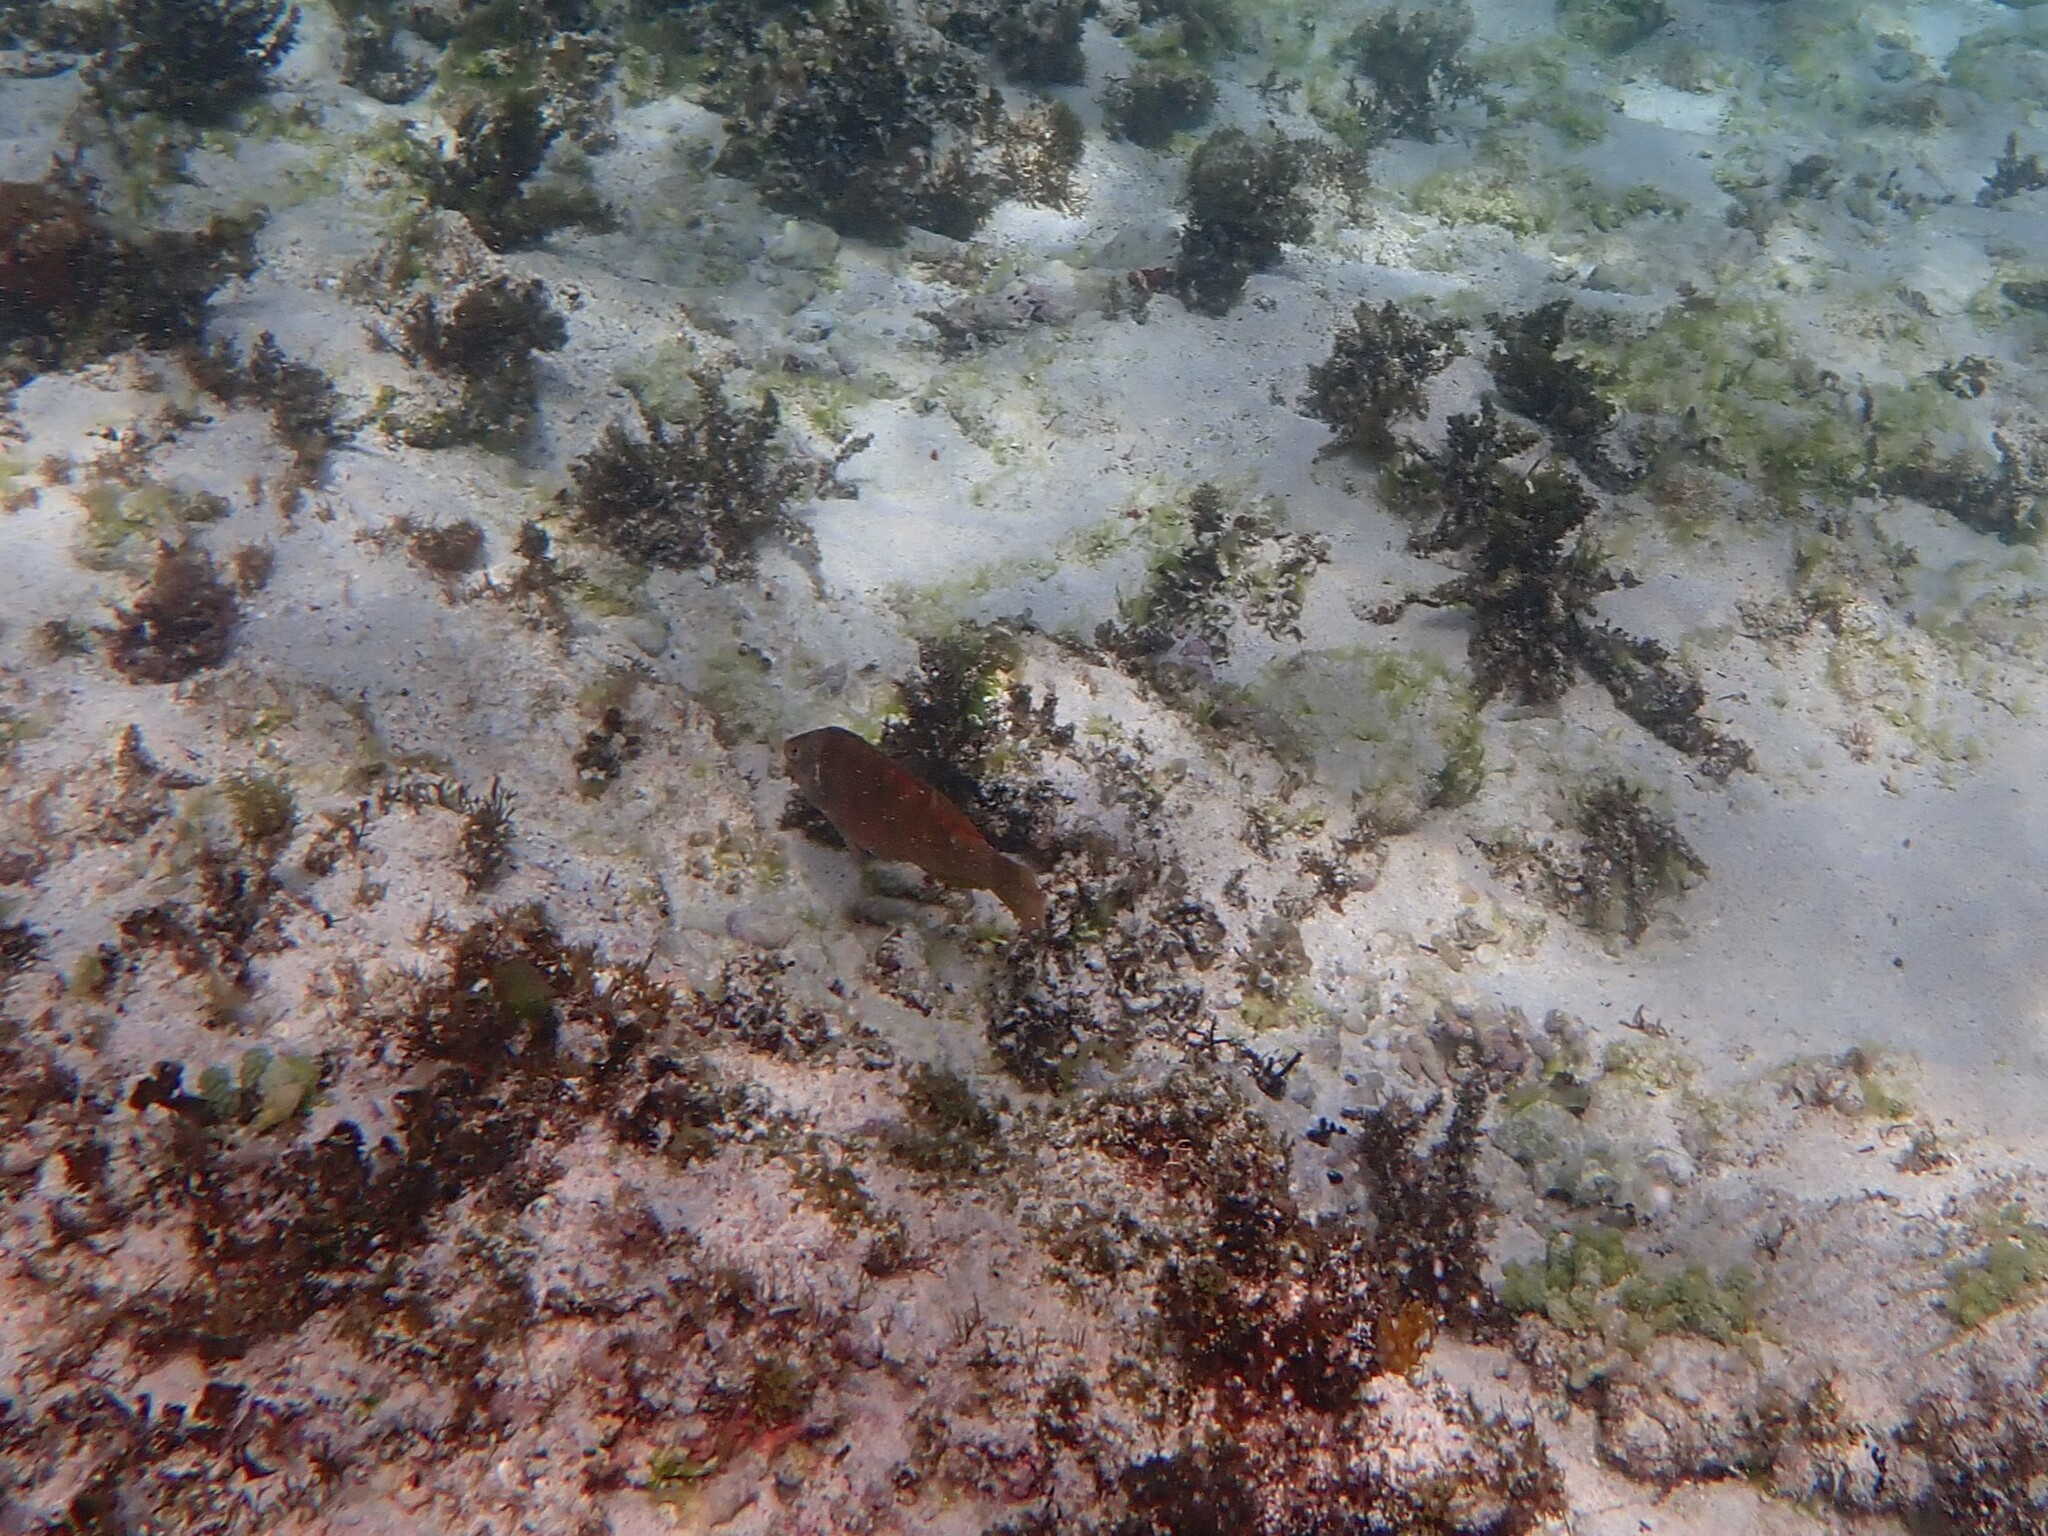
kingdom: Animalia
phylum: Chordata
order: Perciformes
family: Labridae
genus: Pseudolabrus
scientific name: Pseudolabrus luculentus
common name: Luculentus wrasse
